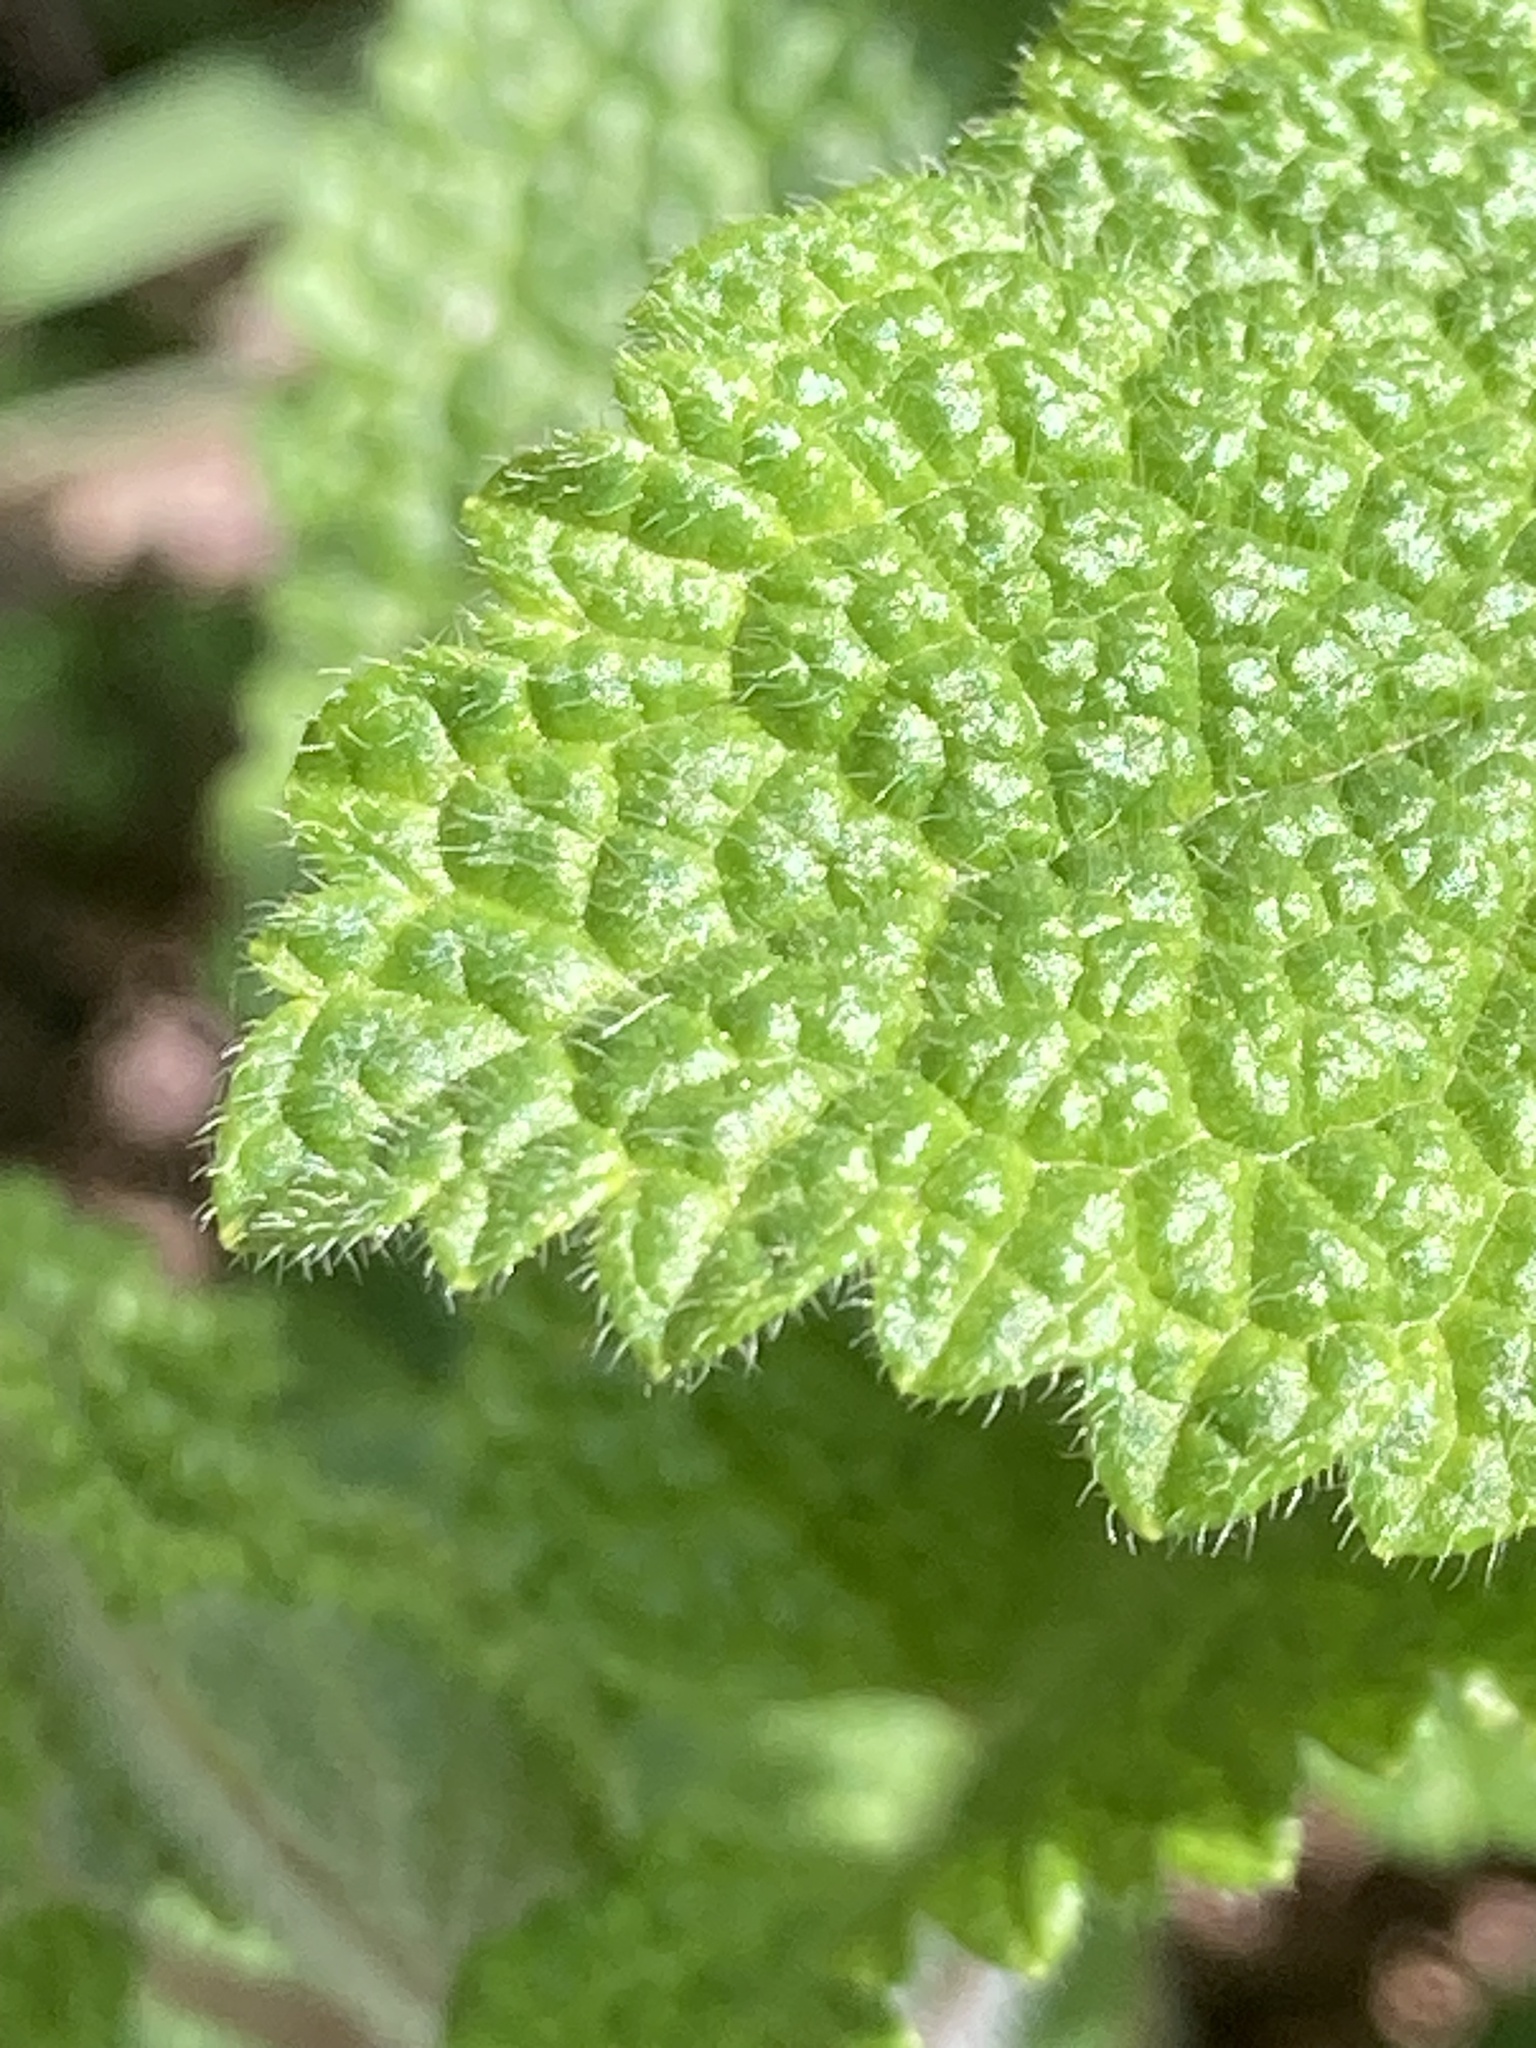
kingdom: Plantae
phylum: Tracheophyta
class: Magnoliopsida
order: Lamiales
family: Lamiaceae
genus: Teucrium
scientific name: Teucrium scorodonia
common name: Woodland germander
